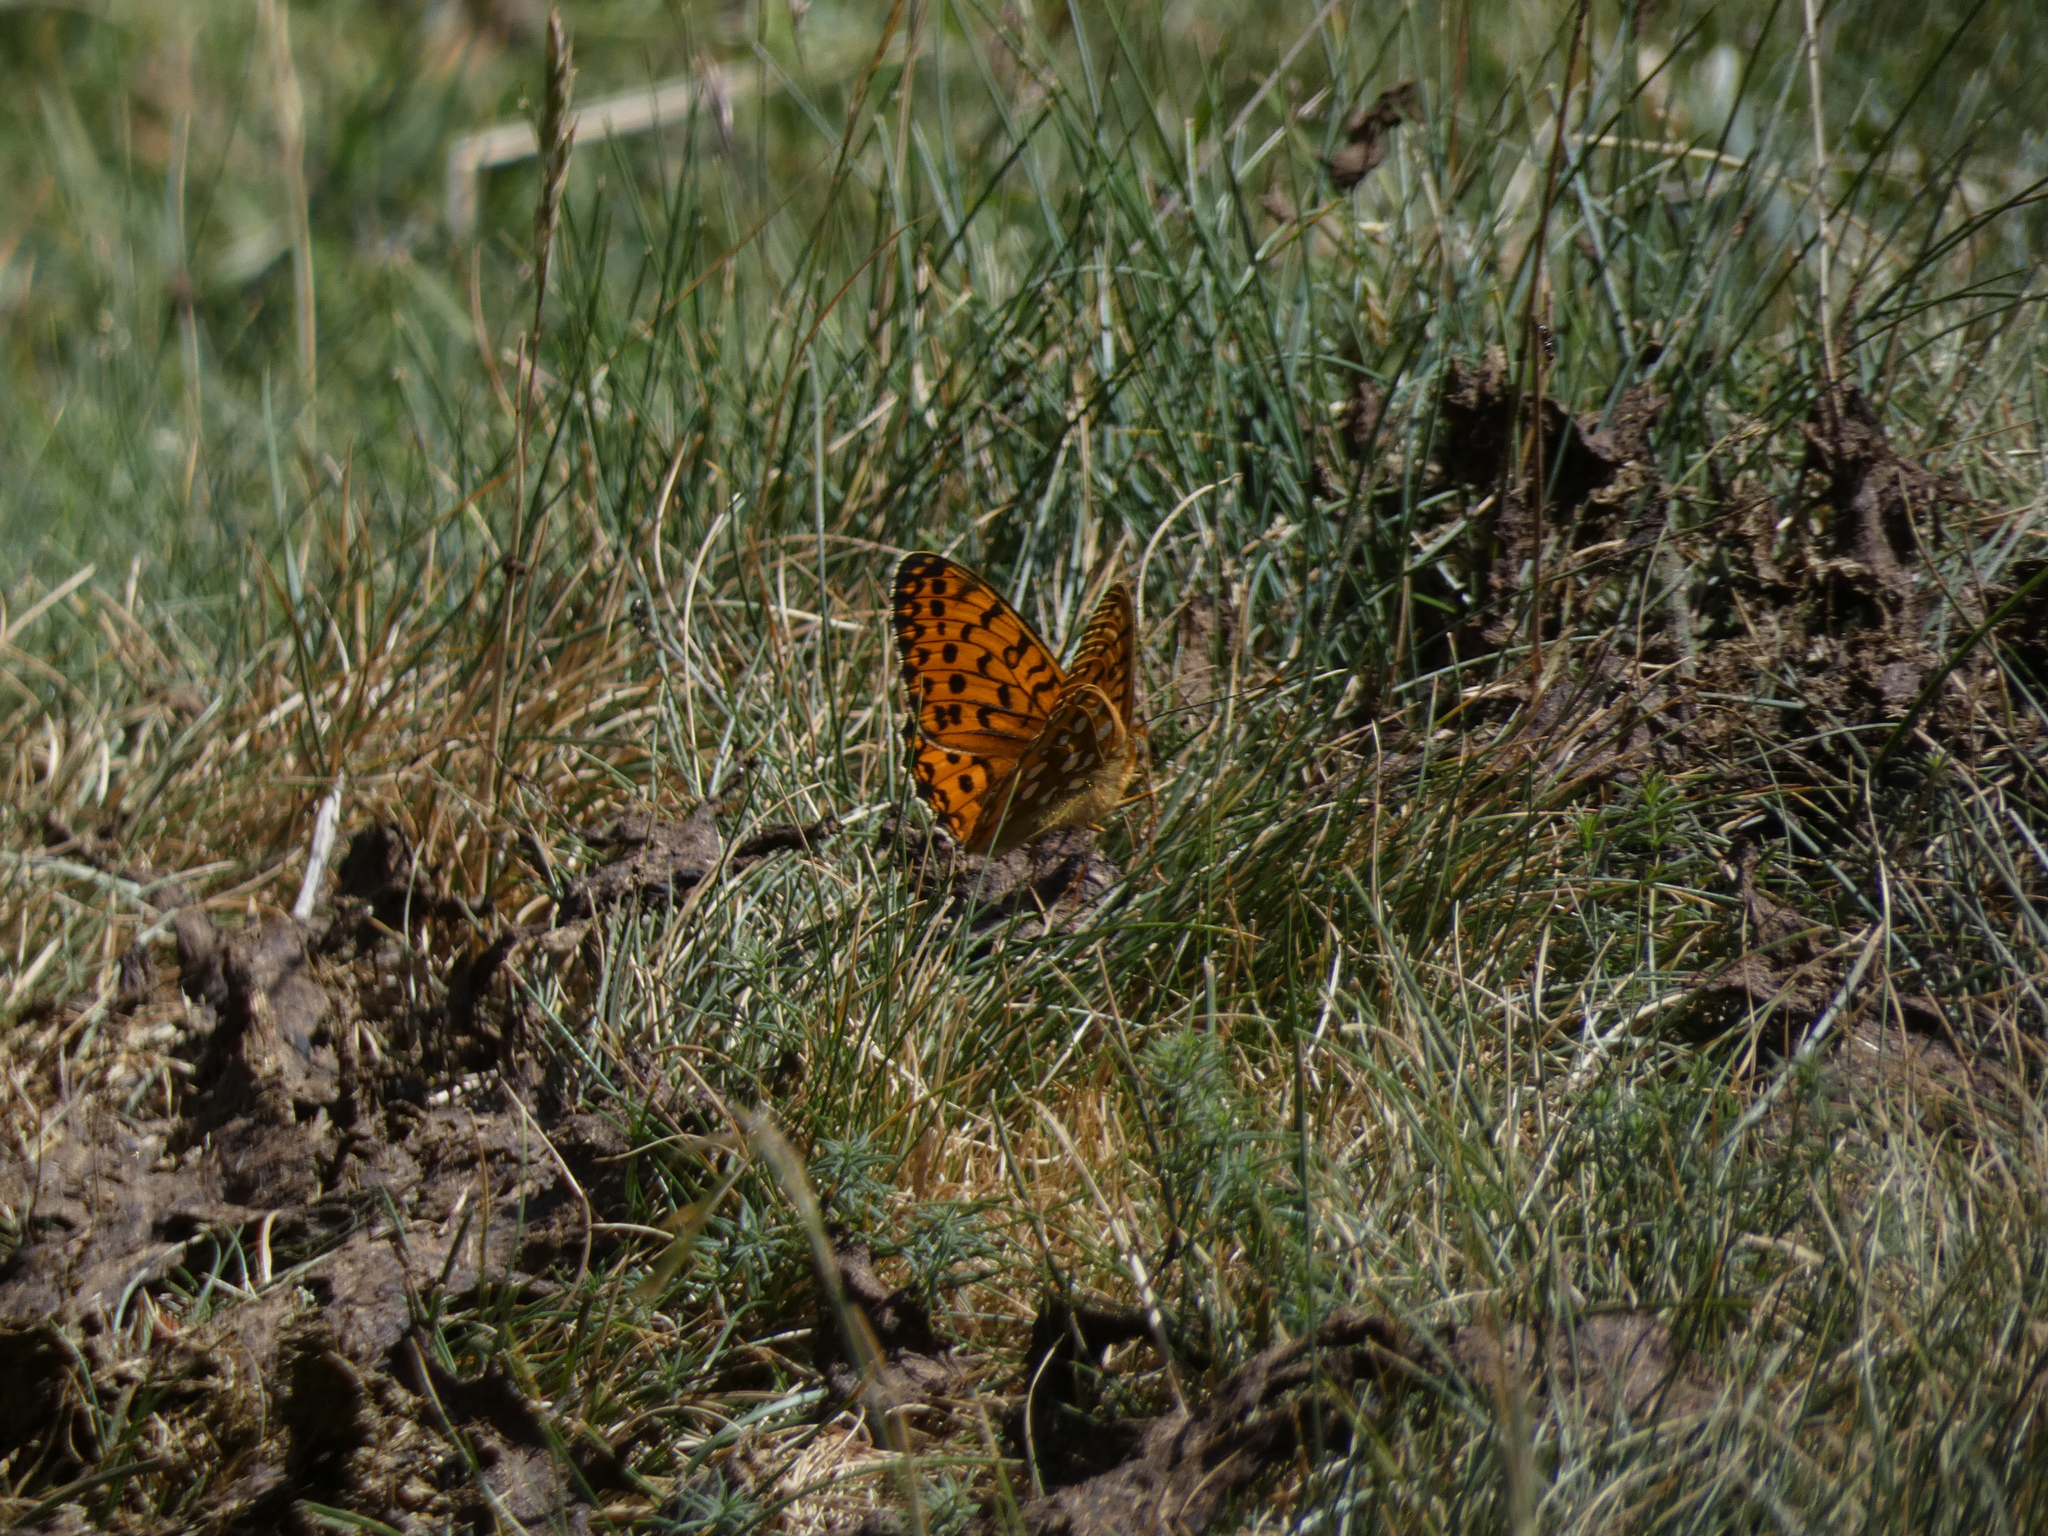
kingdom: Animalia
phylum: Arthropoda
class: Insecta
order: Lepidoptera
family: Nymphalidae
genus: Speyeria
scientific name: Speyeria aglaja
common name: Dark green fritillary
